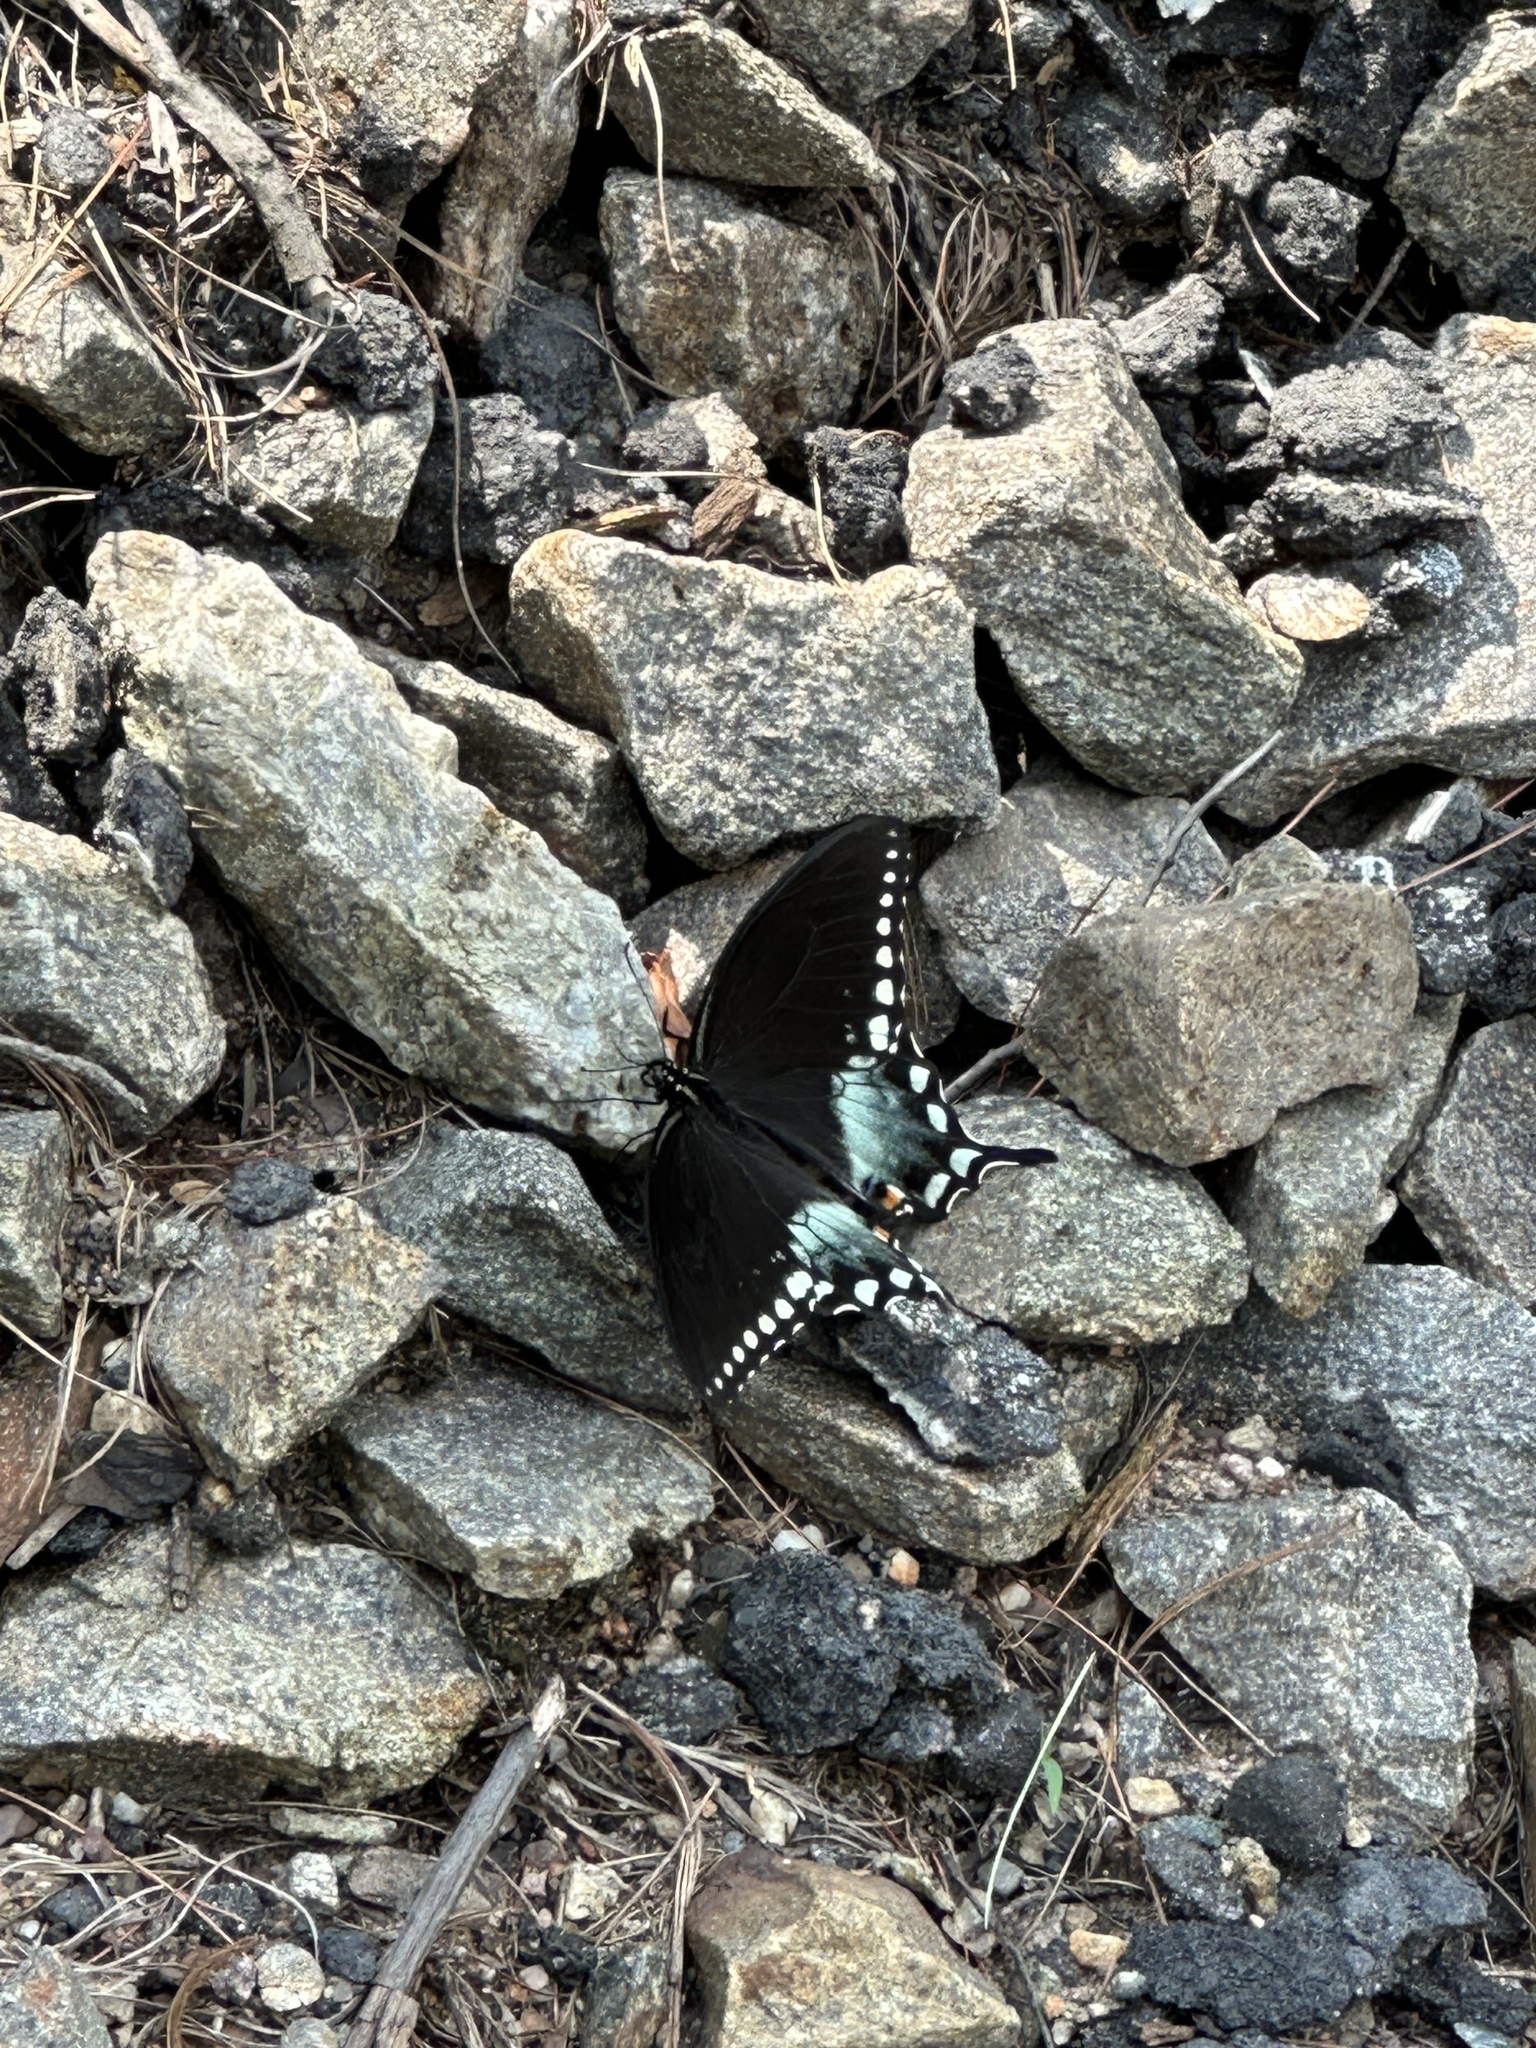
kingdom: Animalia
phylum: Arthropoda
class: Insecta
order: Lepidoptera
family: Papilionidae
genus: Papilio
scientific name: Papilio troilus
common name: Spicebush swallowtail
